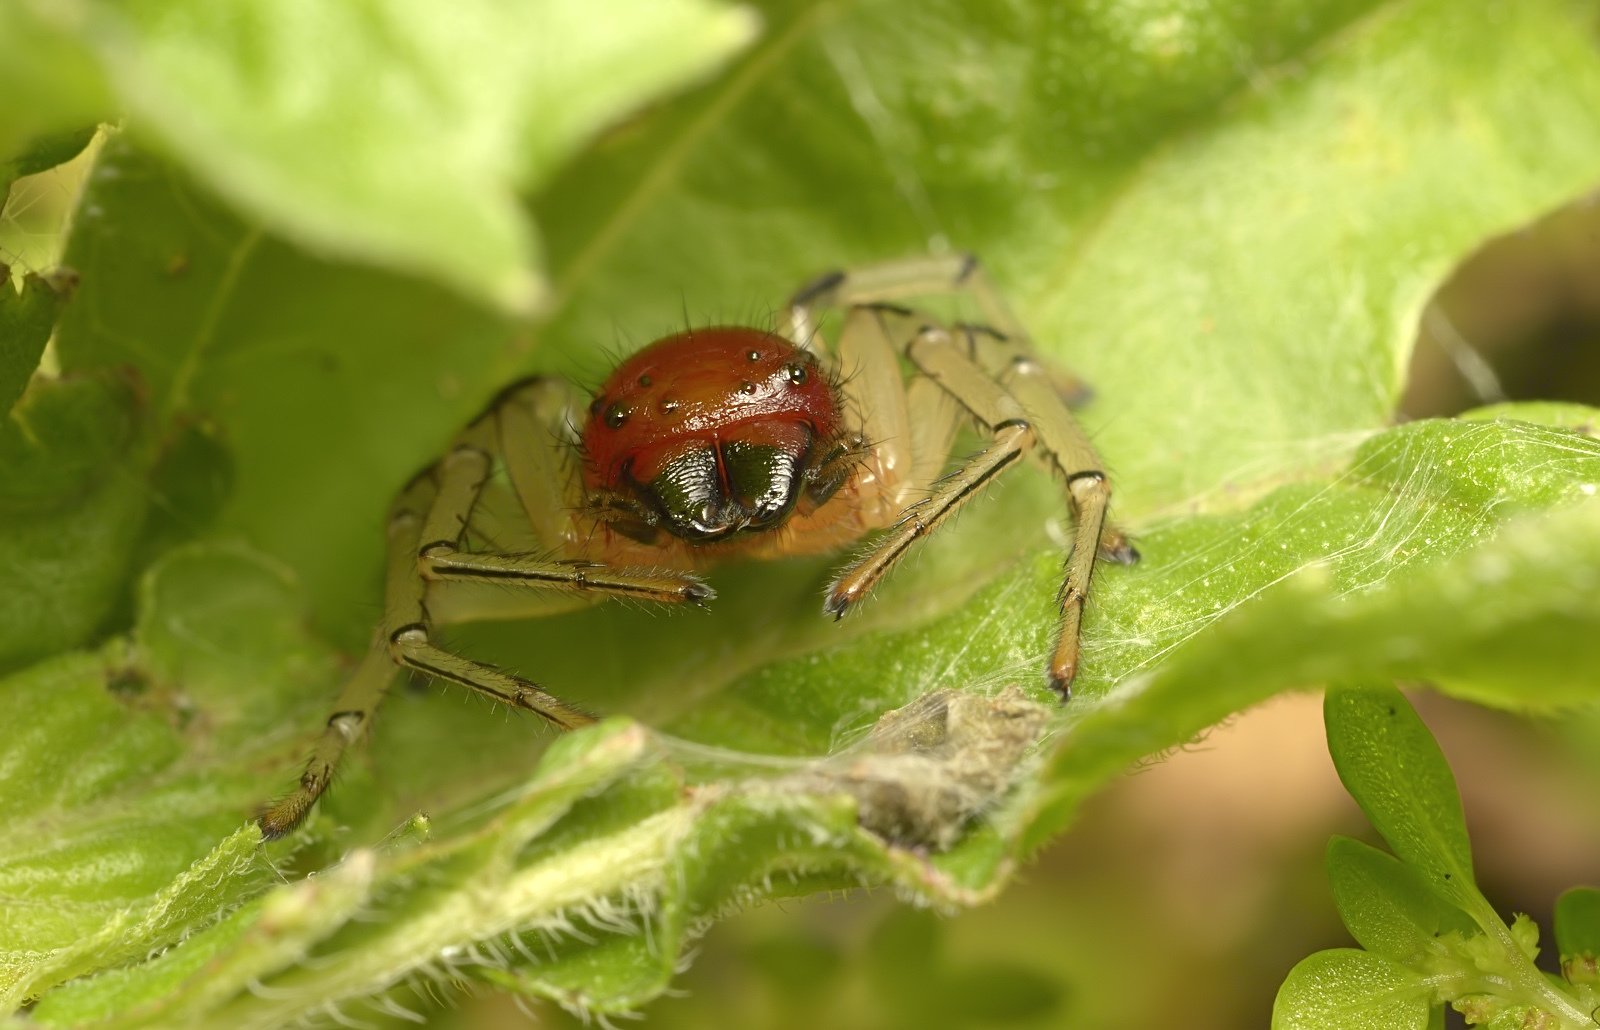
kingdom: Animalia
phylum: Arthropoda
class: Arachnida
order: Araneae
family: Thomisidae
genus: Camaricus
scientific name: Camaricus formosus
